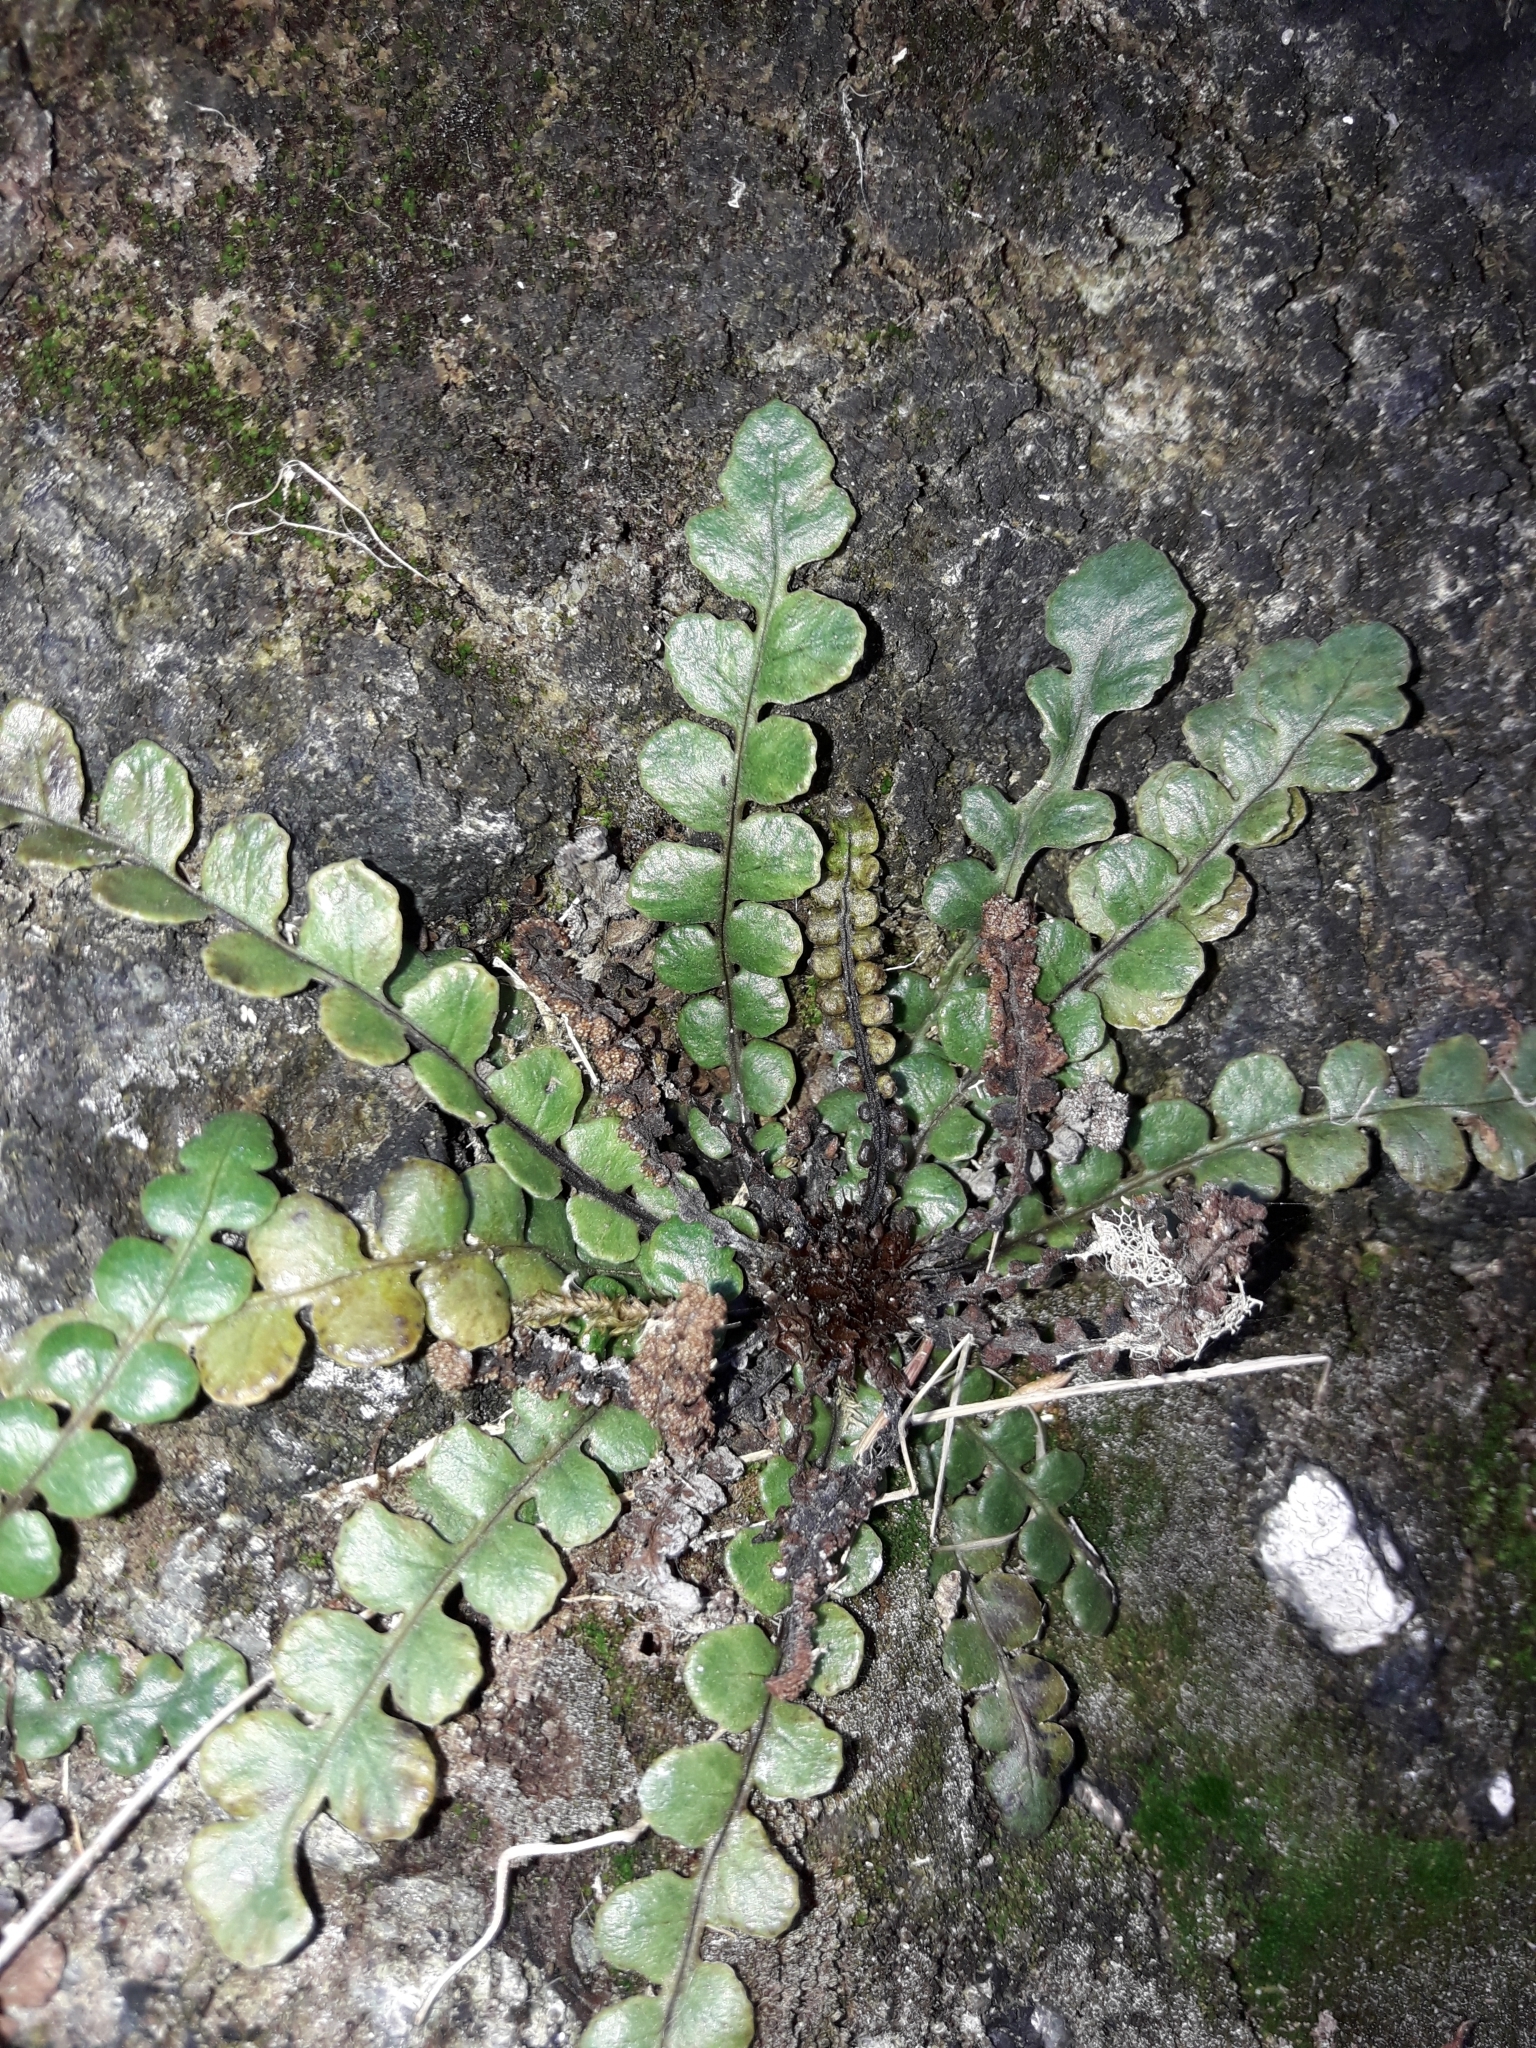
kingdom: Plantae
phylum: Tracheophyta
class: Polypodiopsida
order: Polypodiales
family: Blechnaceae
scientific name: Blechnaceae
